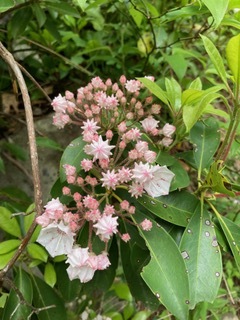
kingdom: Plantae
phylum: Tracheophyta
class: Magnoliopsida
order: Ericales
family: Ericaceae
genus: Kalmia
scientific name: Kalmia latifolia
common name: Mountain-laurel
